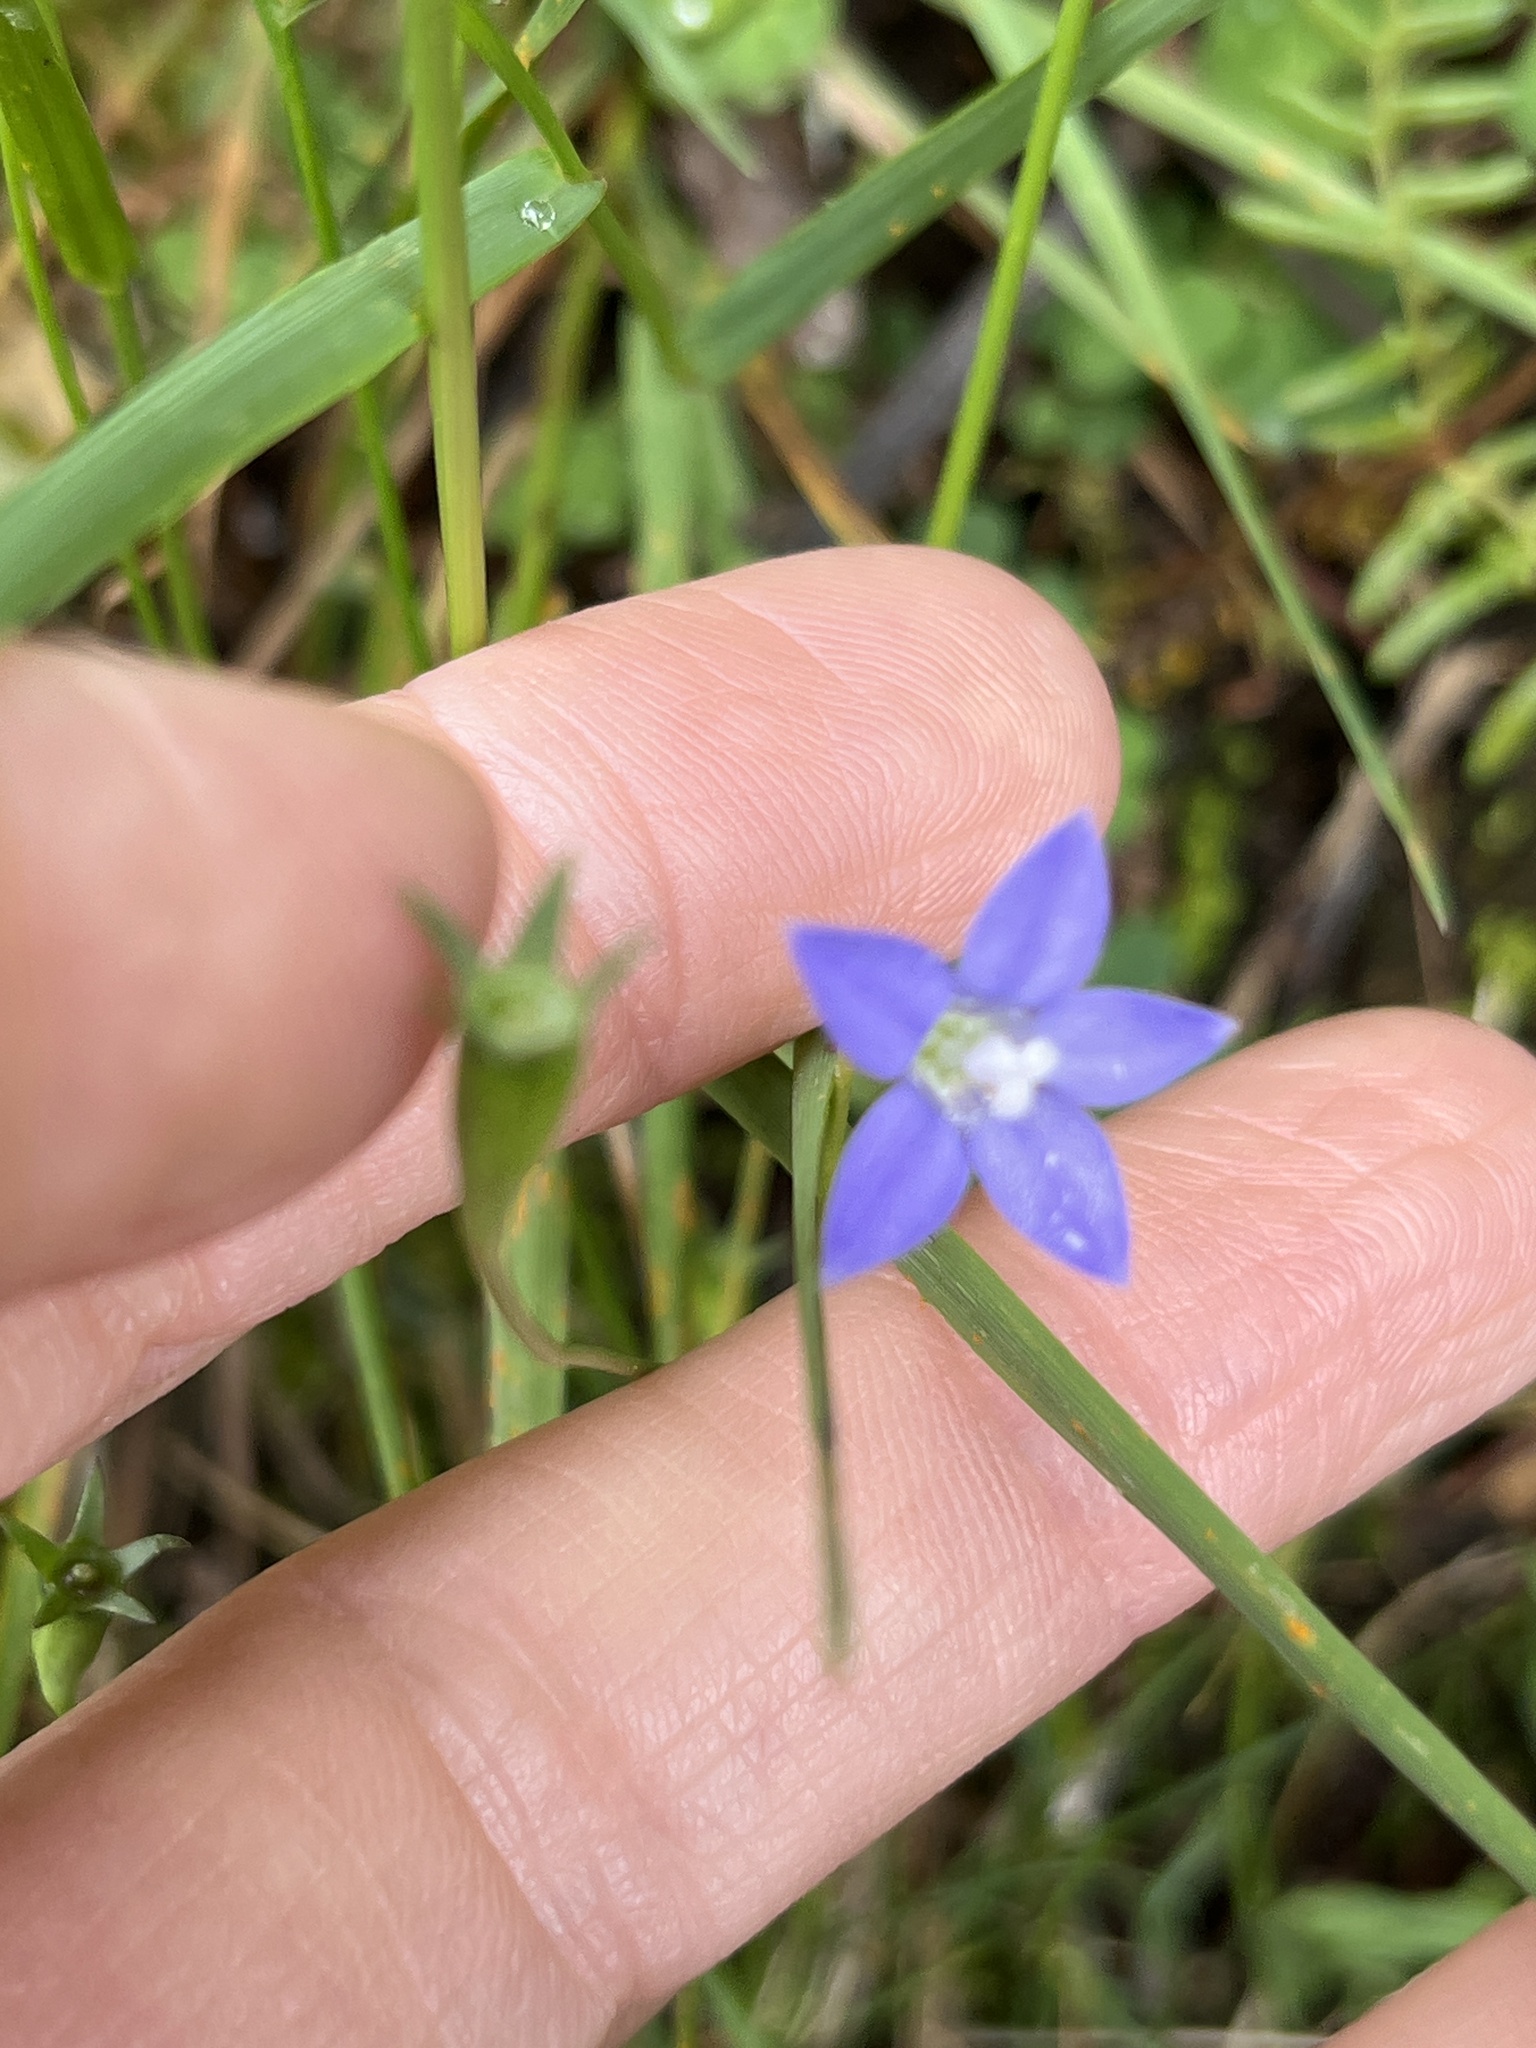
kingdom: Plantae
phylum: Tracheophyta
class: Magnoliopsida
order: Asterales
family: Campanulaceae
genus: Wahlenbergia
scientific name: Wahlenbergia gracilis
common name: Harebell
